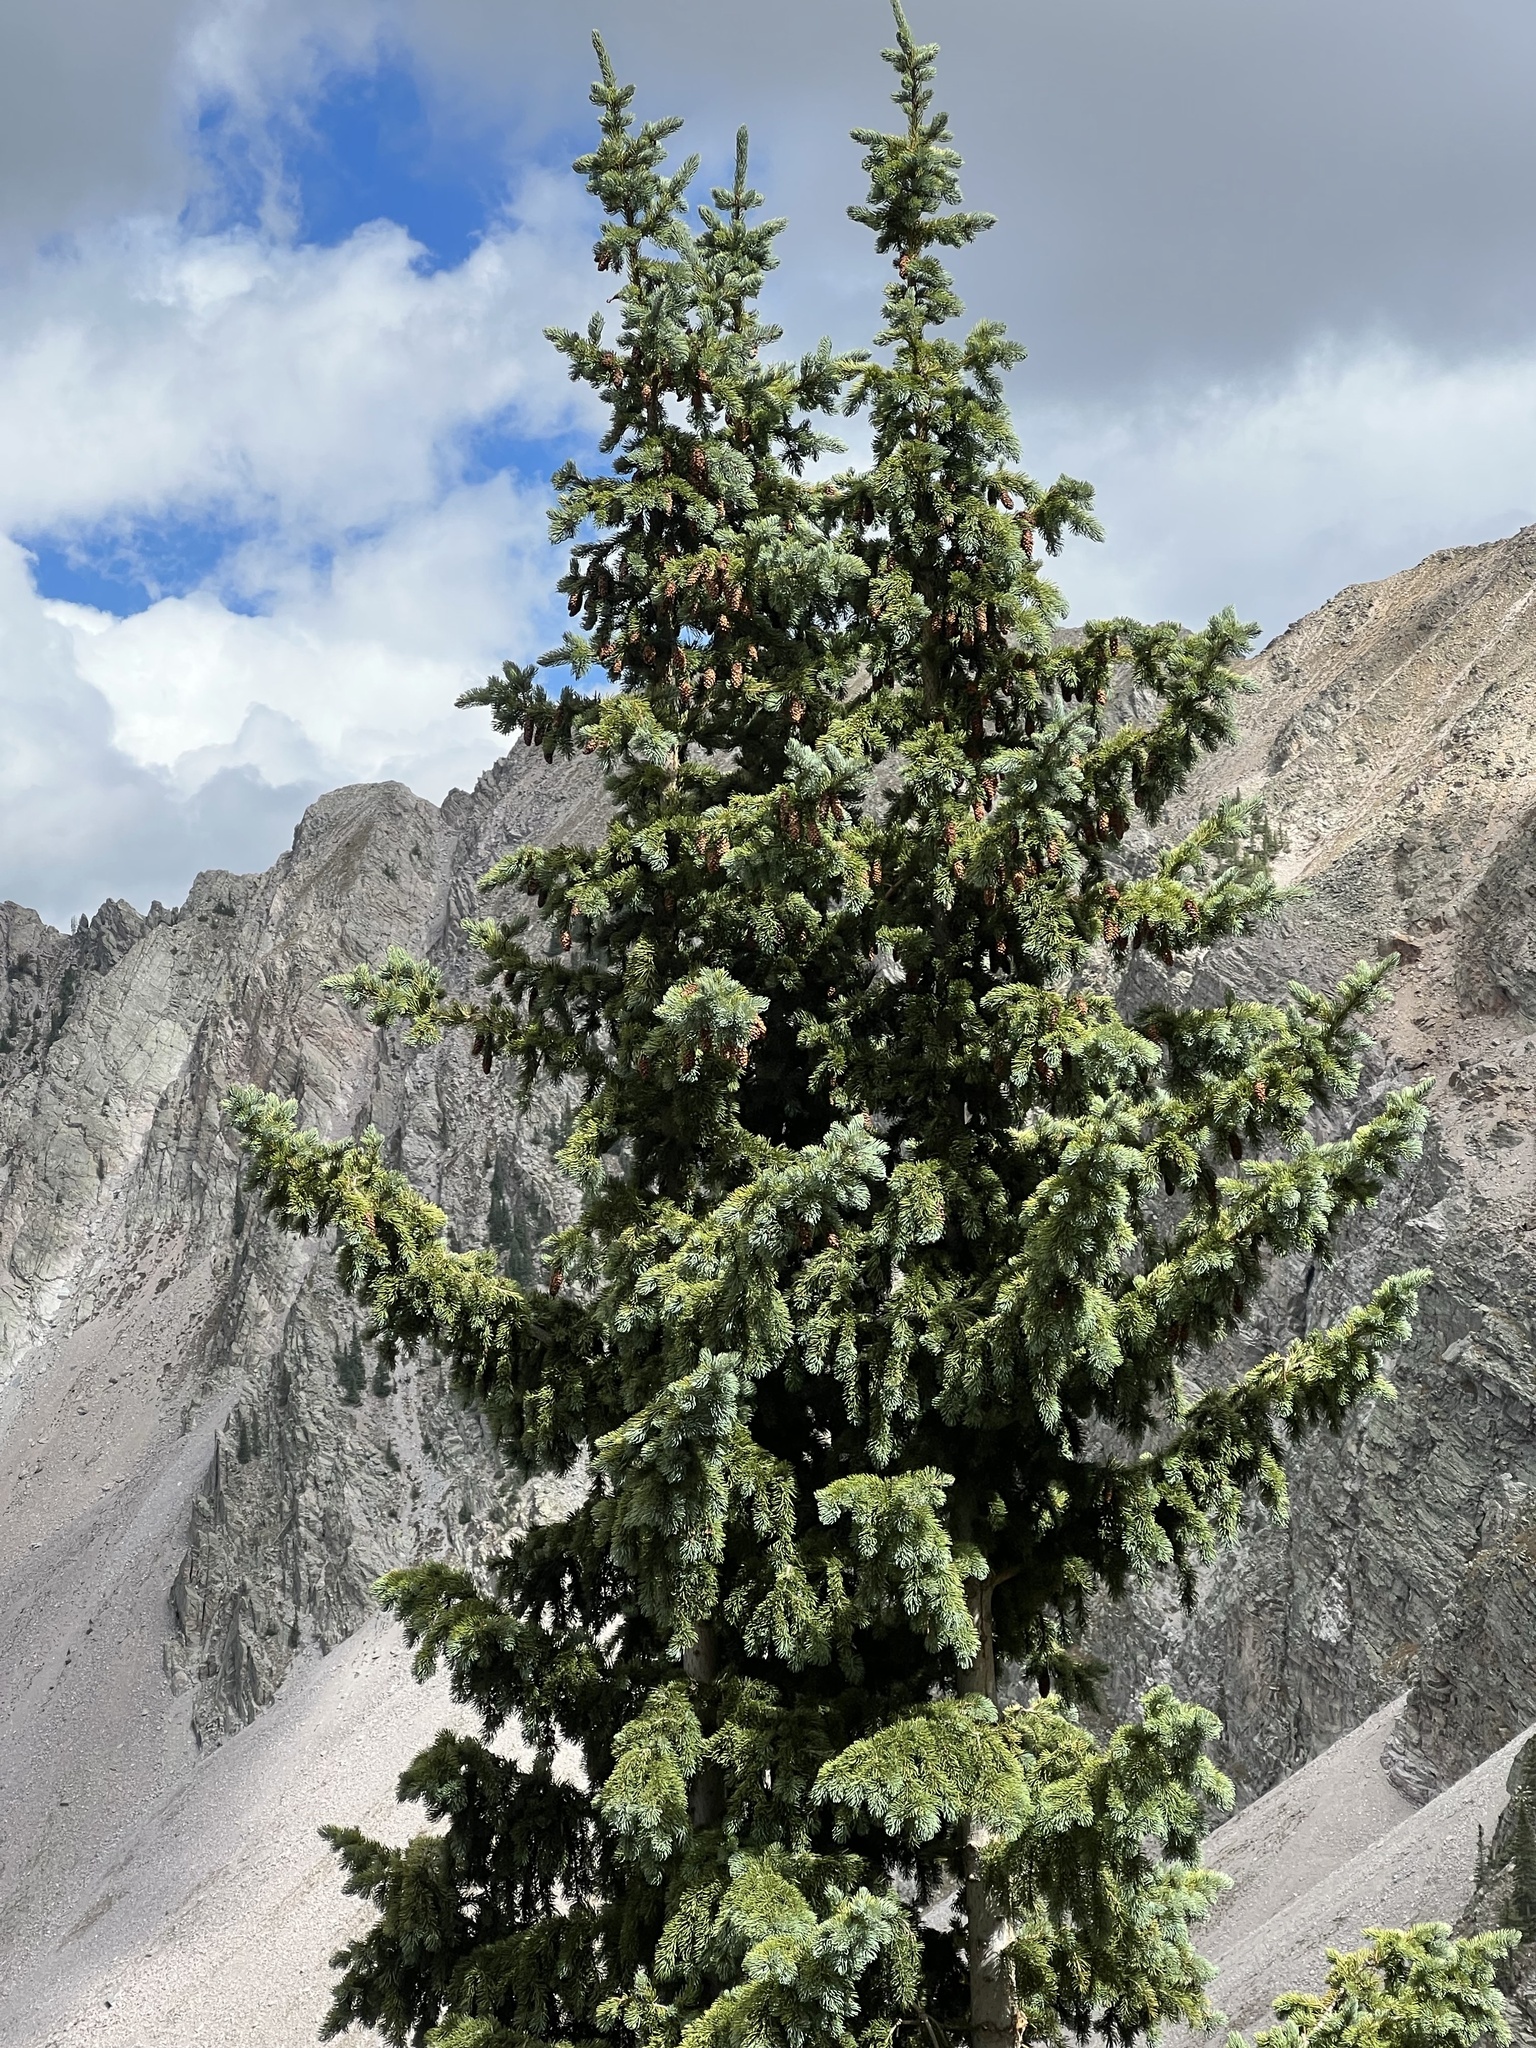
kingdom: Plantae
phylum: Tracheophyta
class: Pinopsida
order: Pinales
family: Pinaceae
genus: Picea
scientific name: Picea engelmannii
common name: Engelmann spruce
